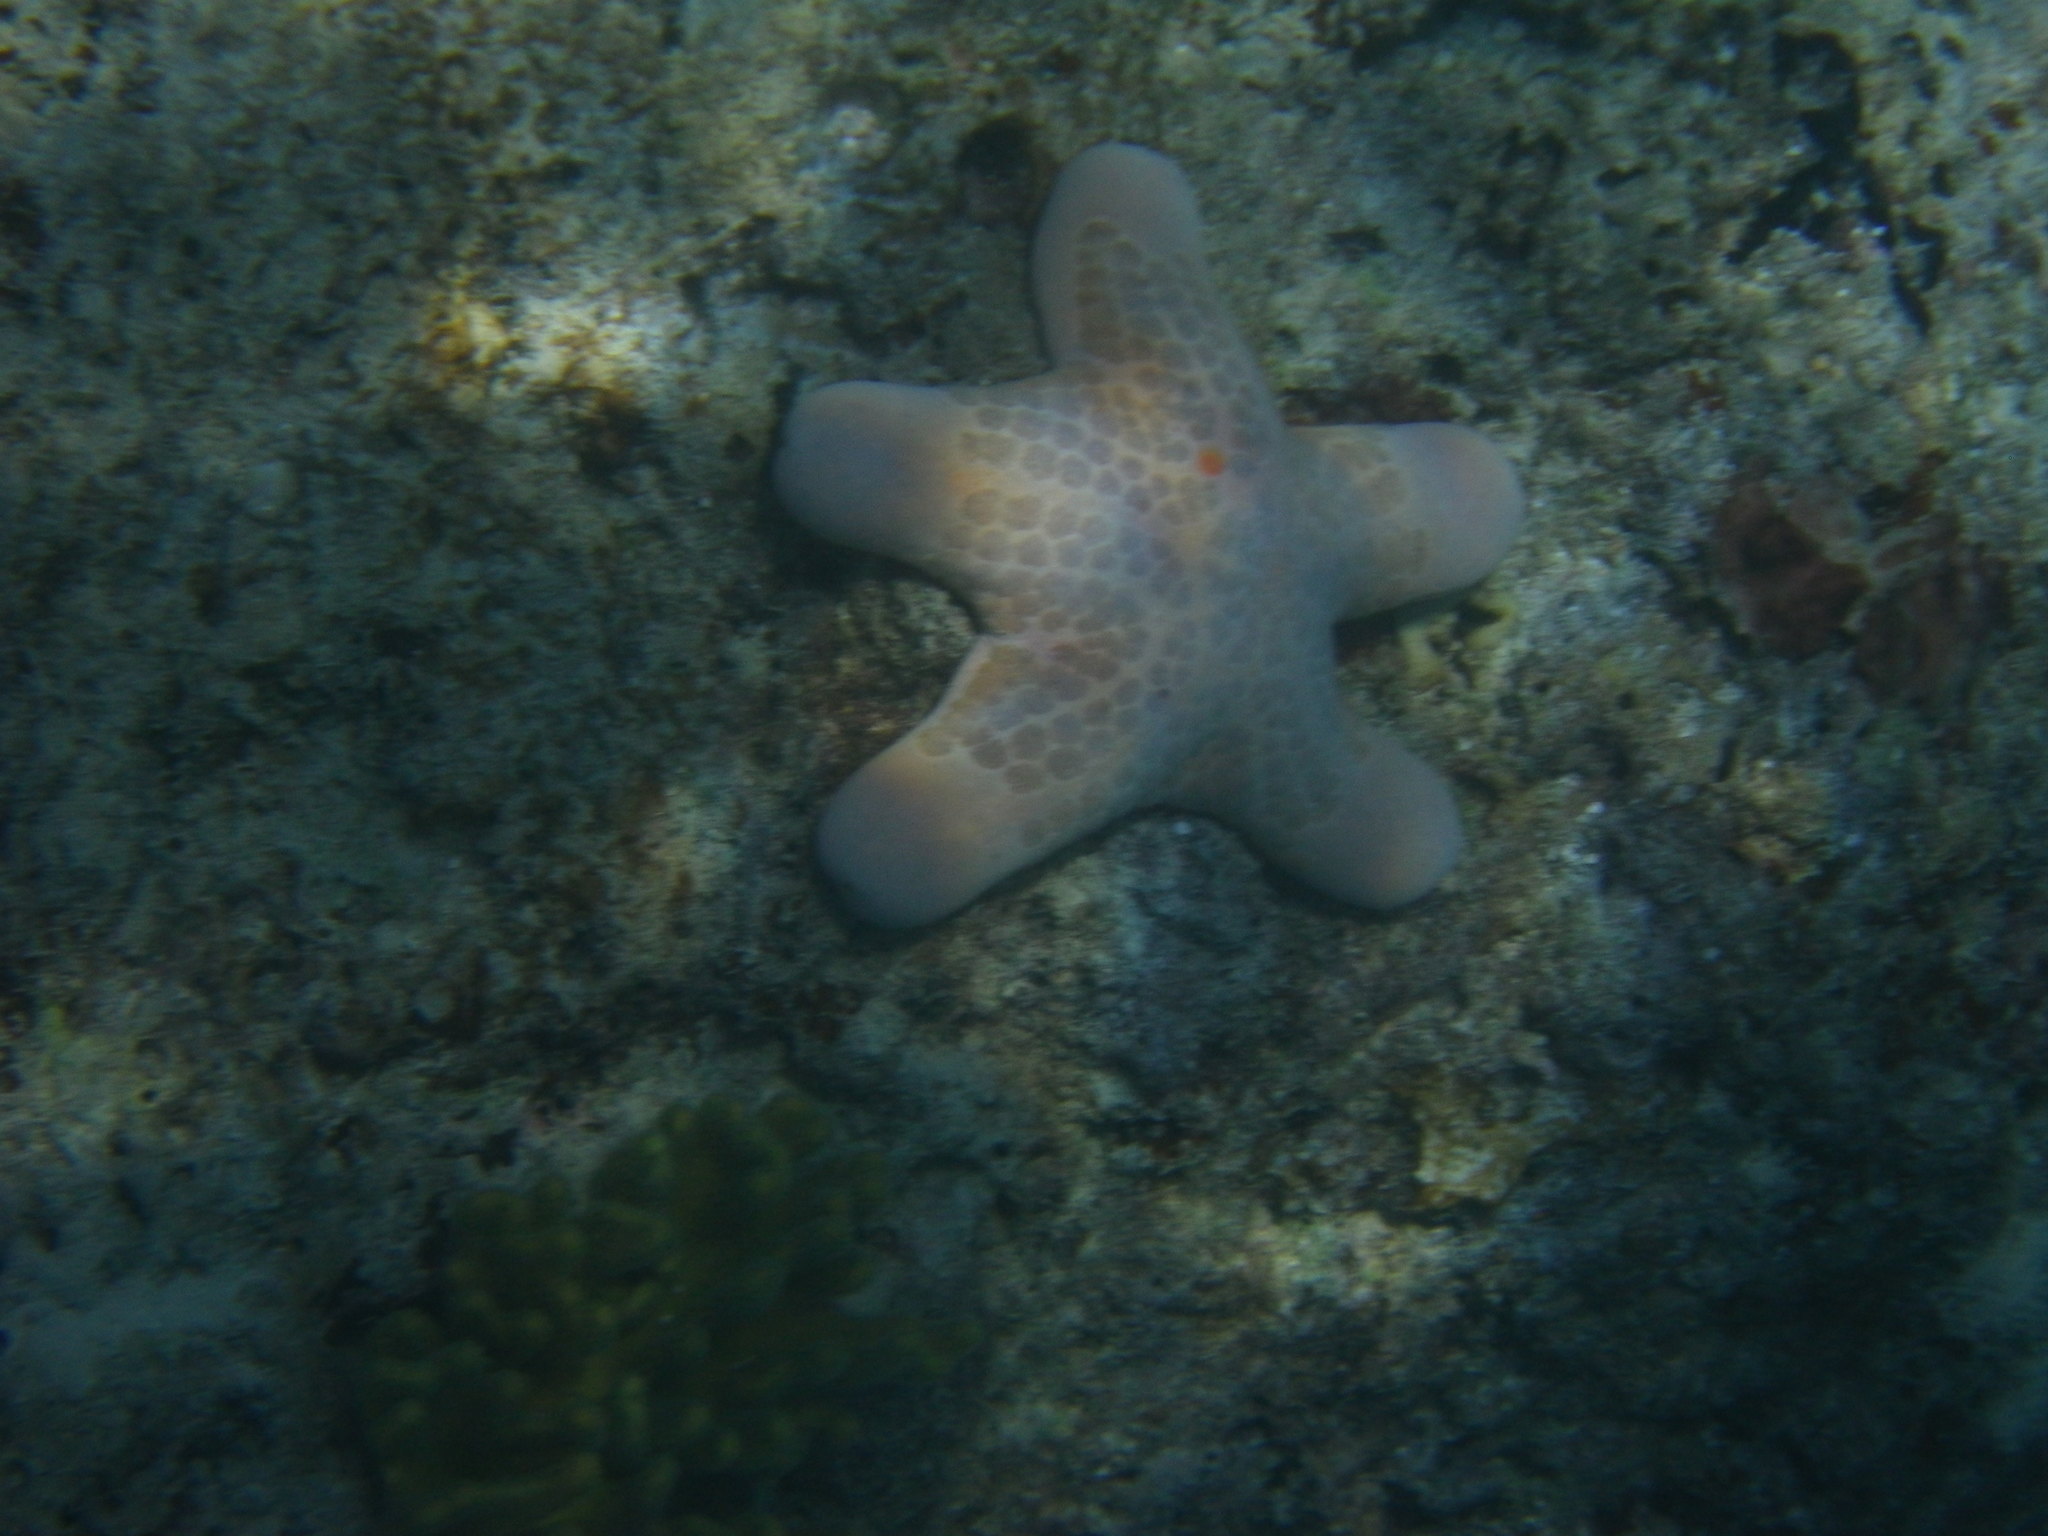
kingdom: Animalia
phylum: Echinodermata
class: Asteroidea
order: Valvatida
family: Oreasteridae
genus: Choriaster
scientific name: Choriaster granulatus
